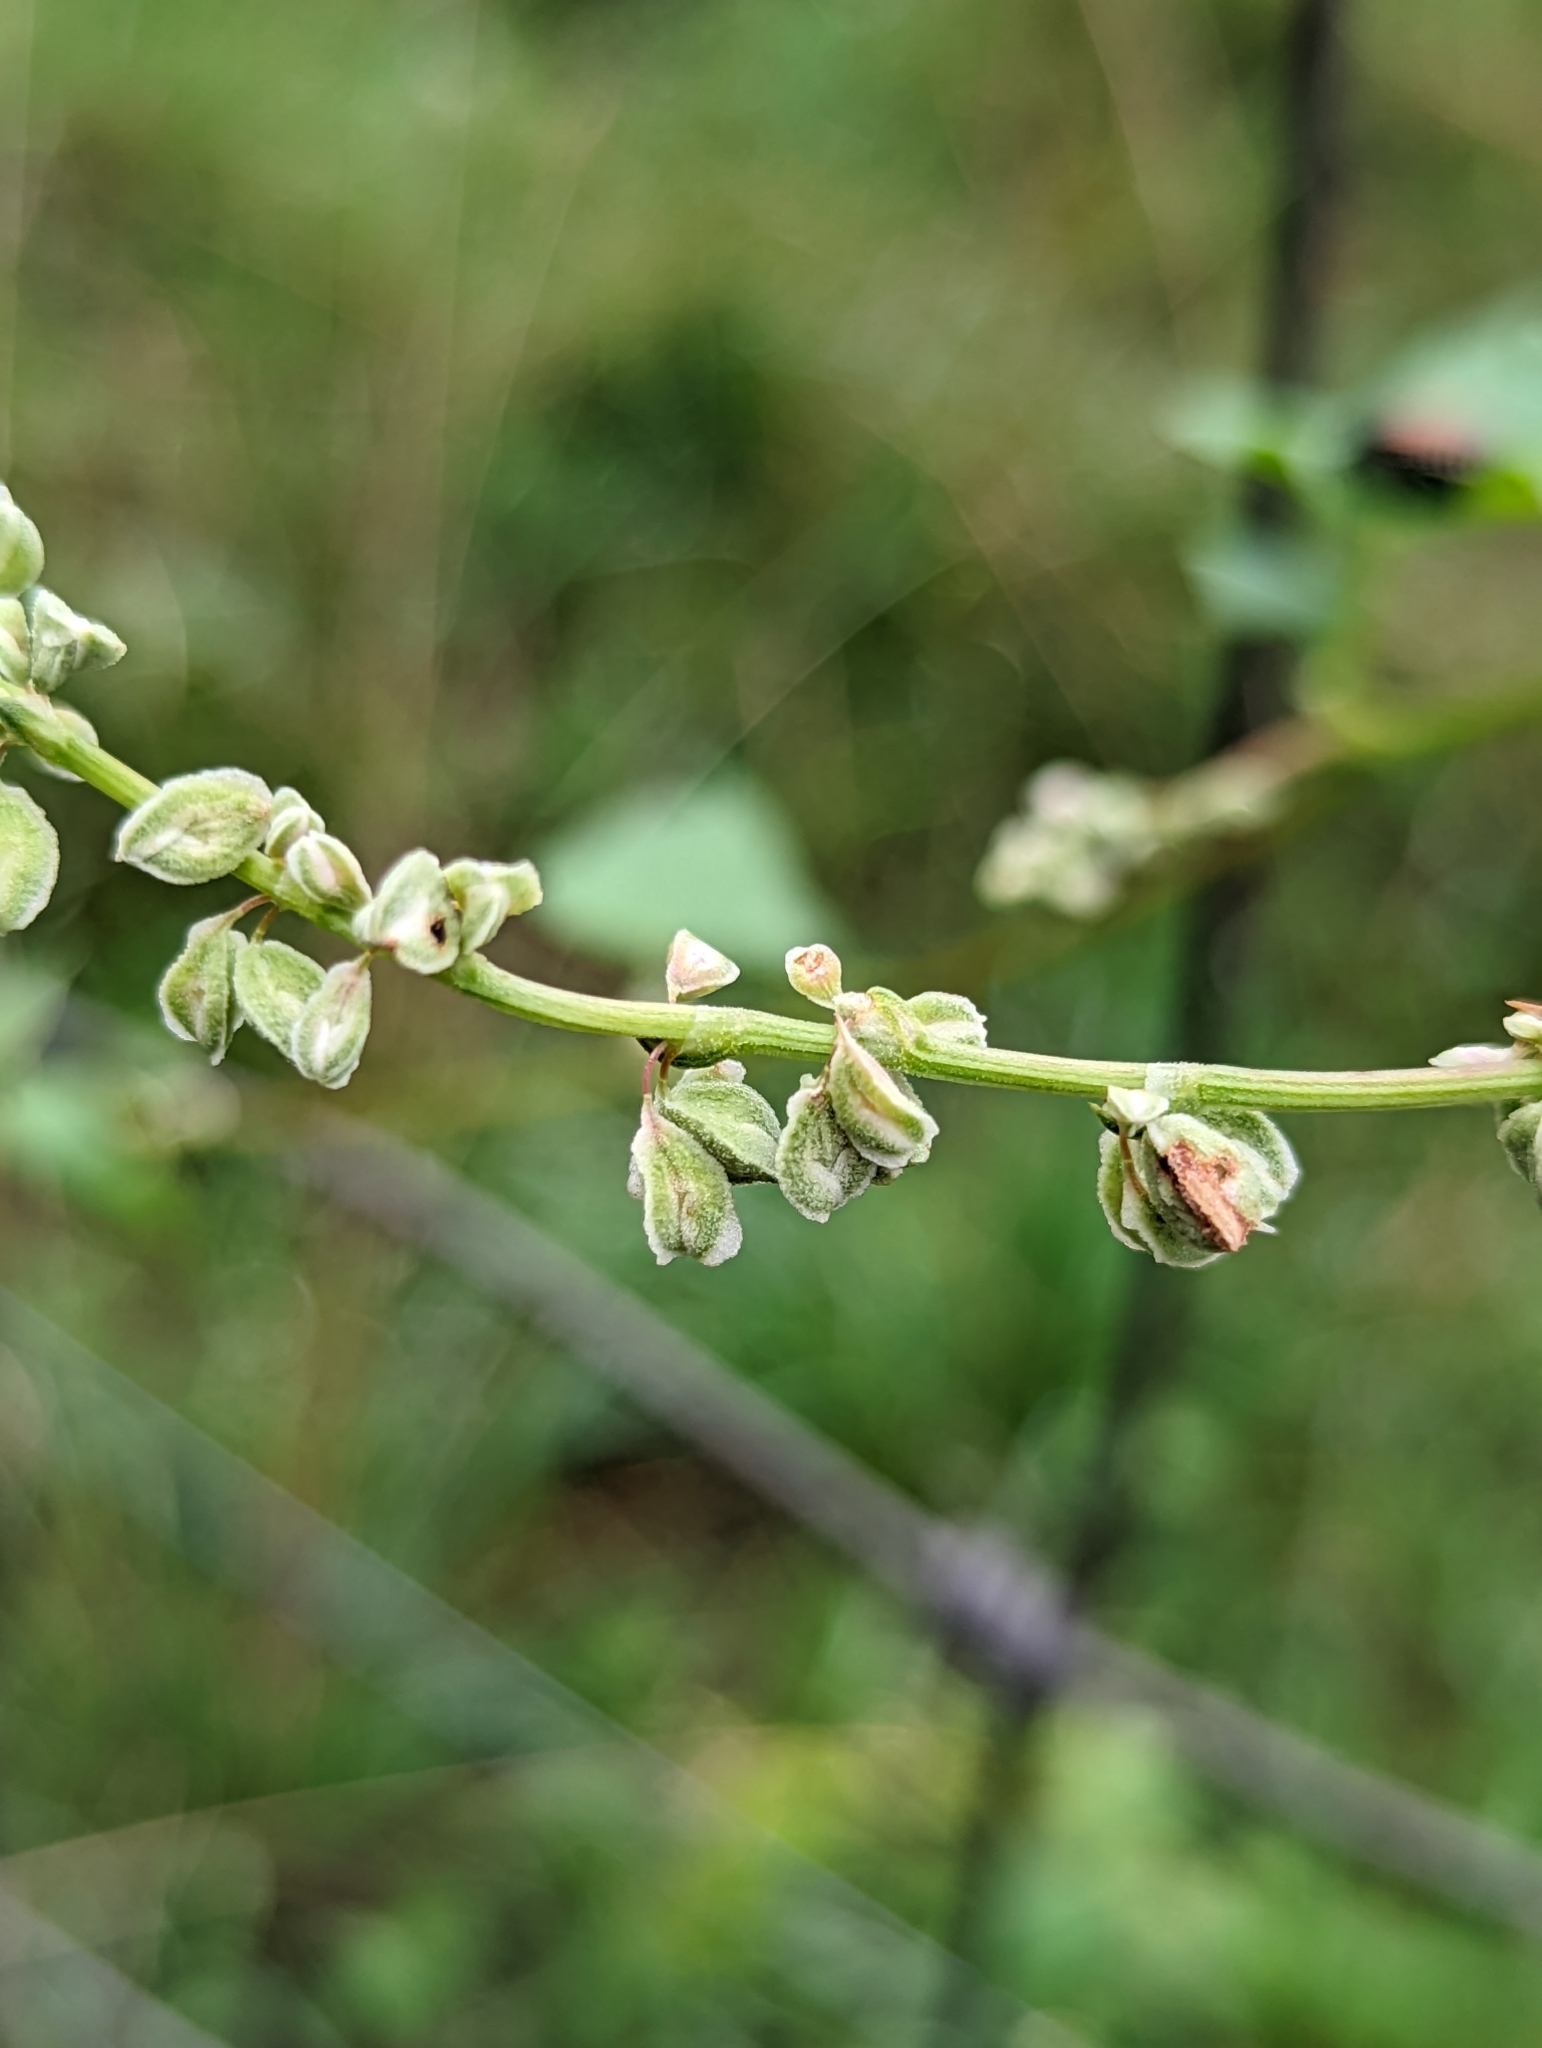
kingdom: Plantae
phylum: Tracheophyta
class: Magnoliopsida
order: Caryophyllales
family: Polygonaceae
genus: Fallopia
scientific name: Fallopia convolvulus
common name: Black bindweed
